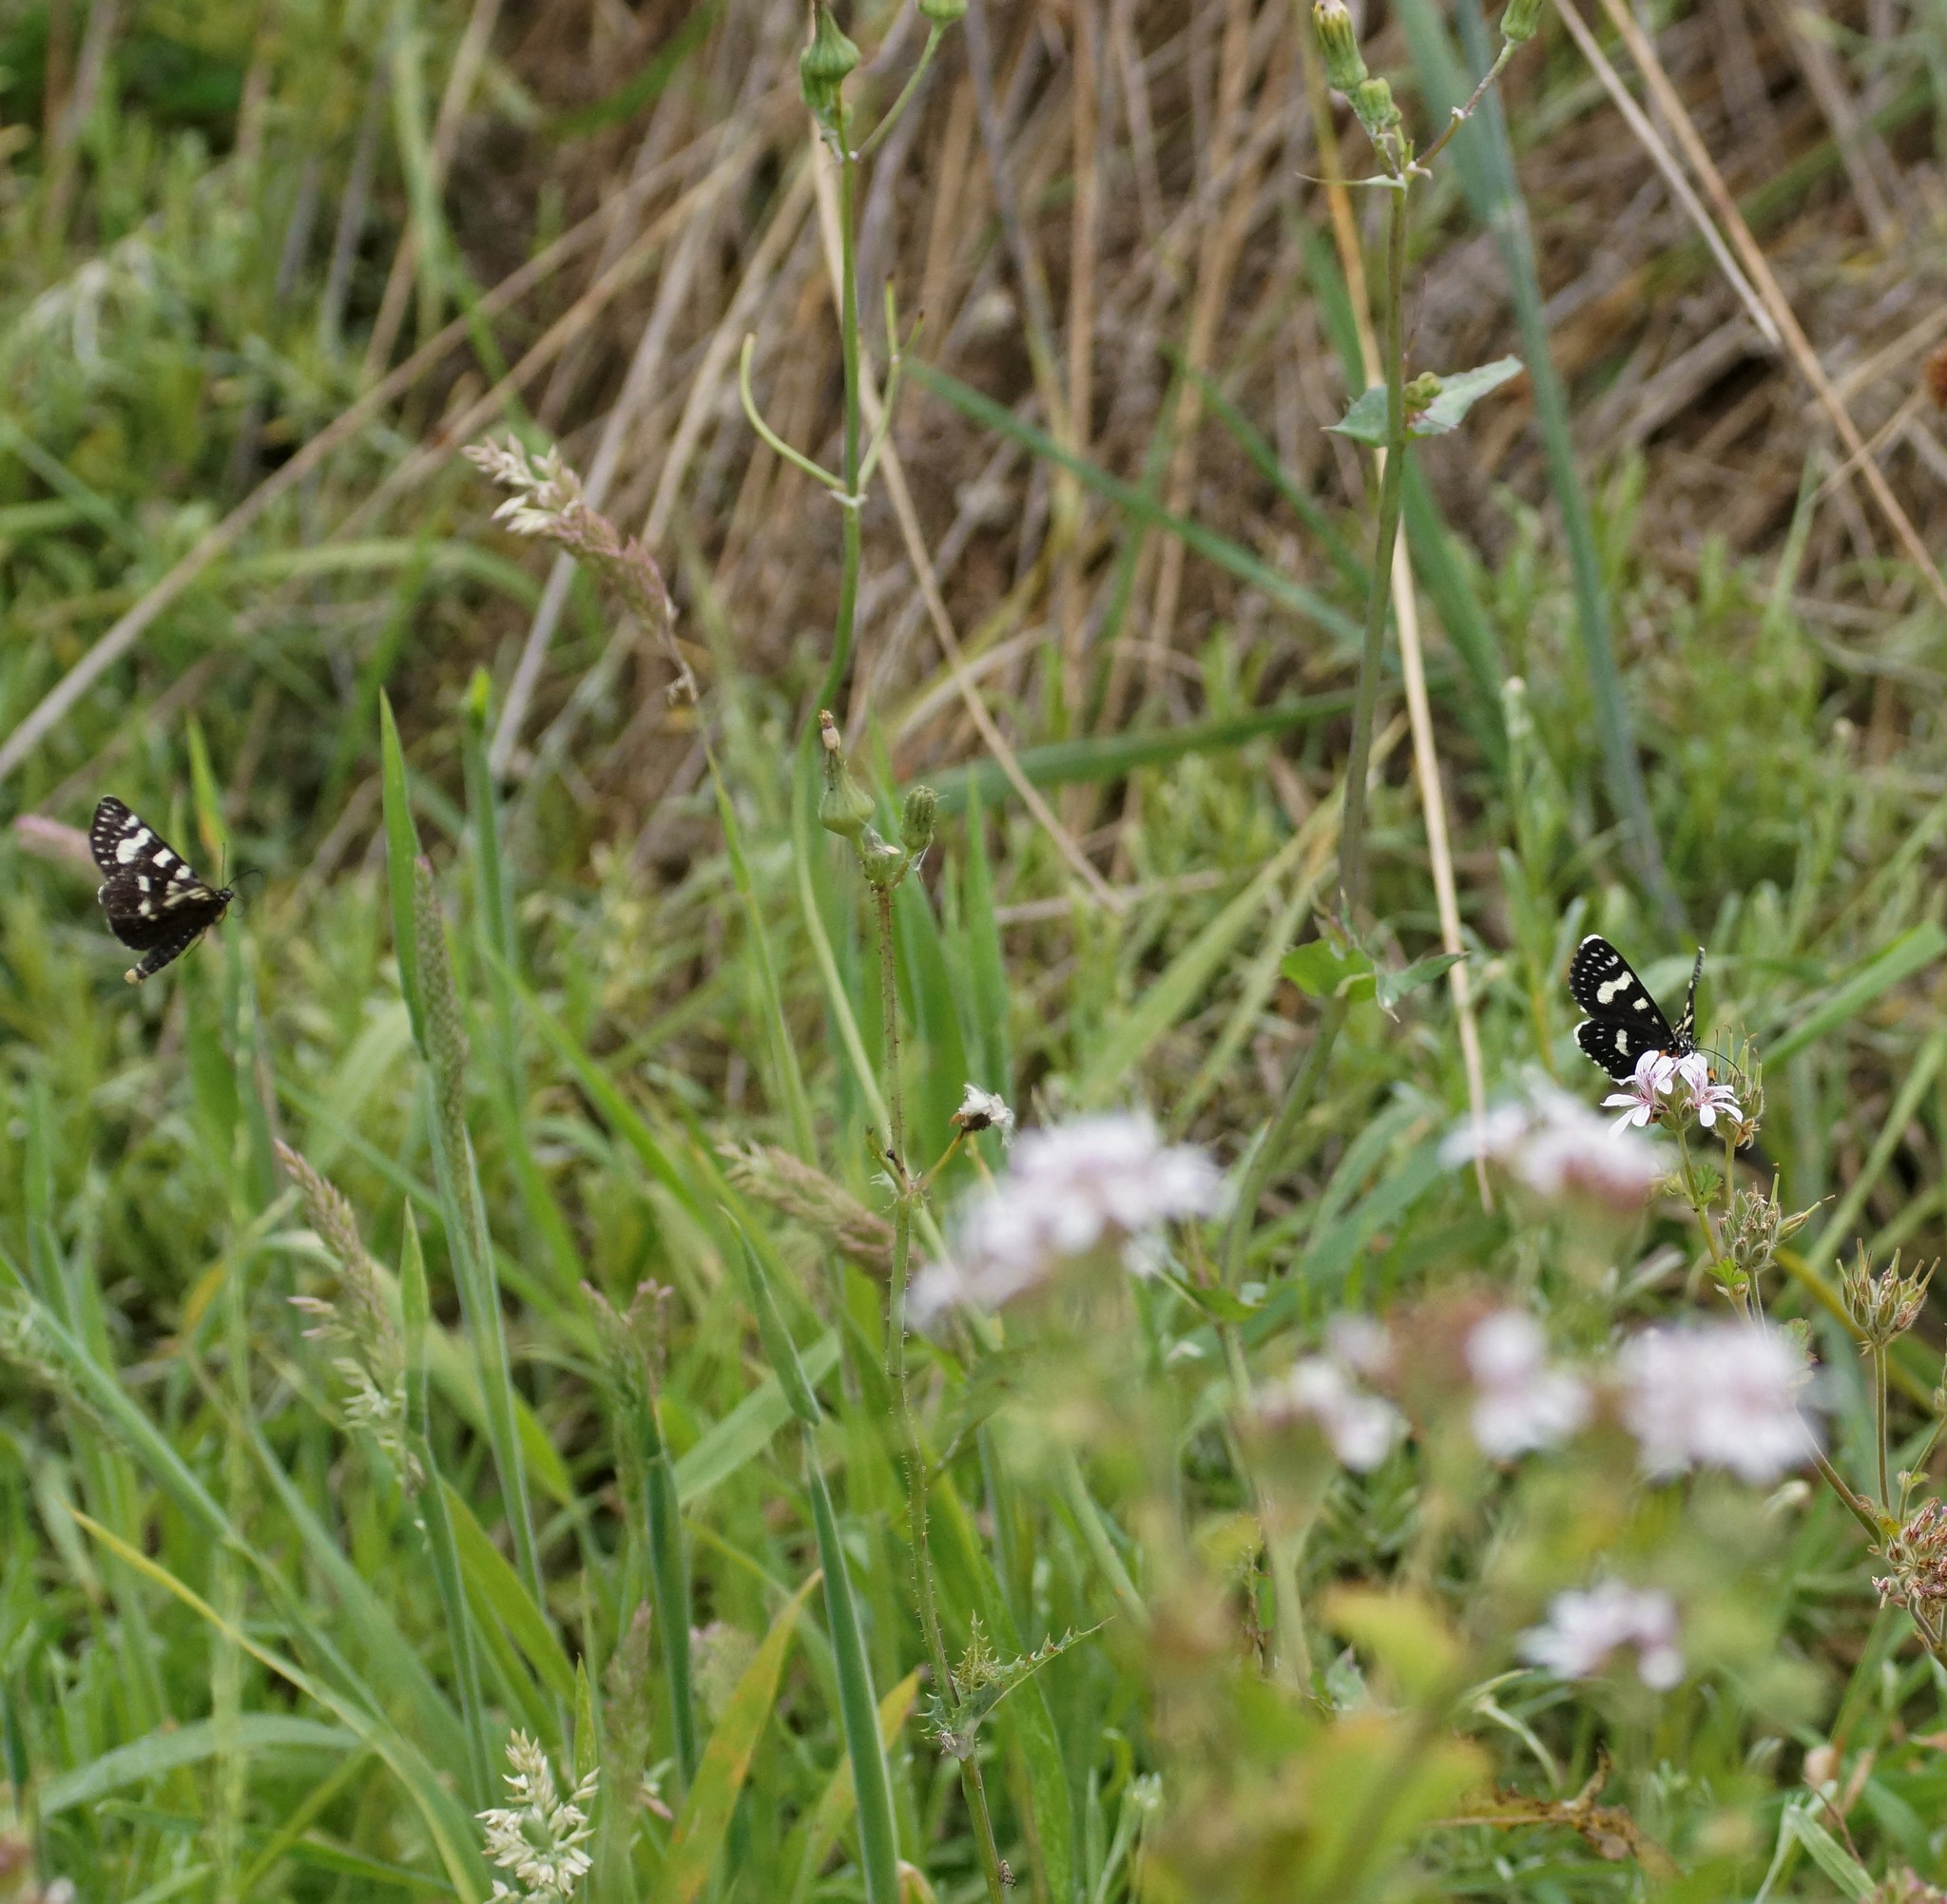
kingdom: Animalia
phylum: Arthropoda
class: Insecta
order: Lepidoptera
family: Noctuidae
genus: Phalaenoides
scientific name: Phalaenoides tristifica
